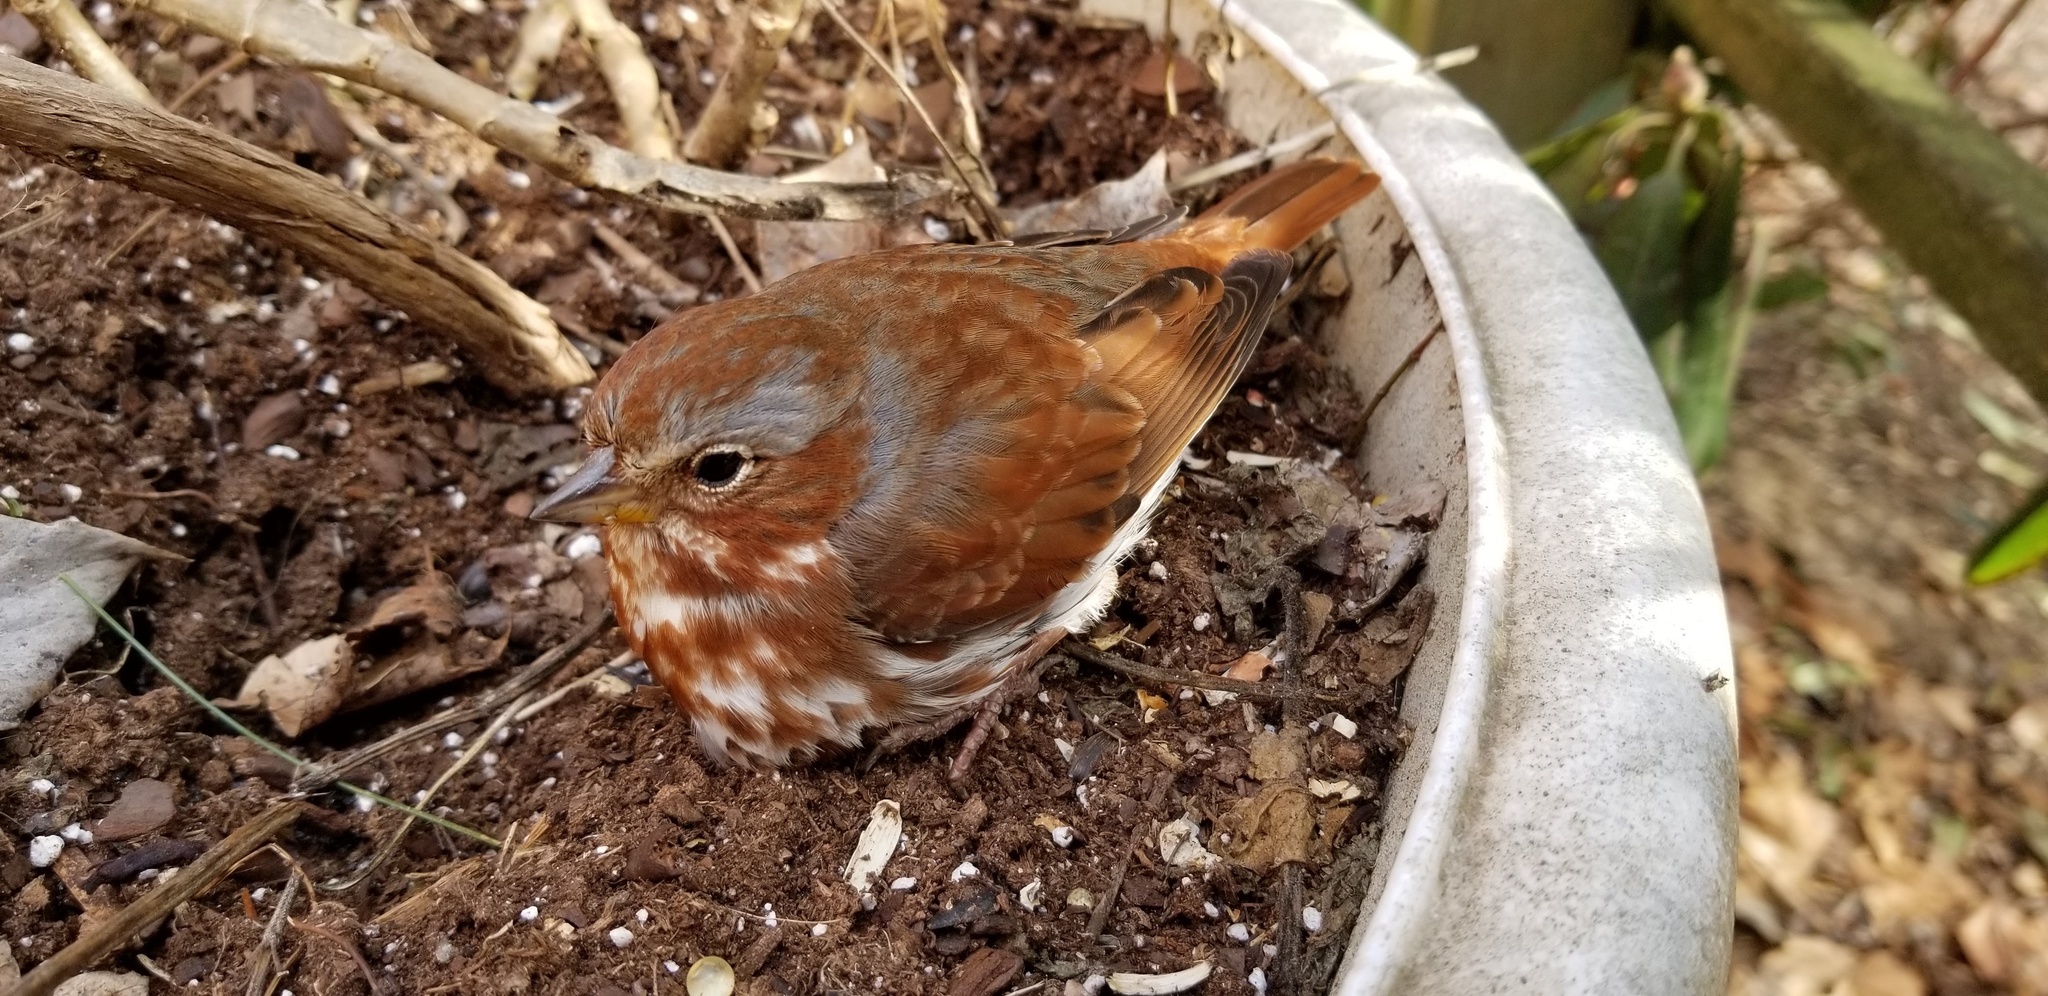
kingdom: Animalia
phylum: Chordata
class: Aves
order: Passeriformes
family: Passerellidae
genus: Passerella
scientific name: Passerella iliaca
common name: Fox sparrow
